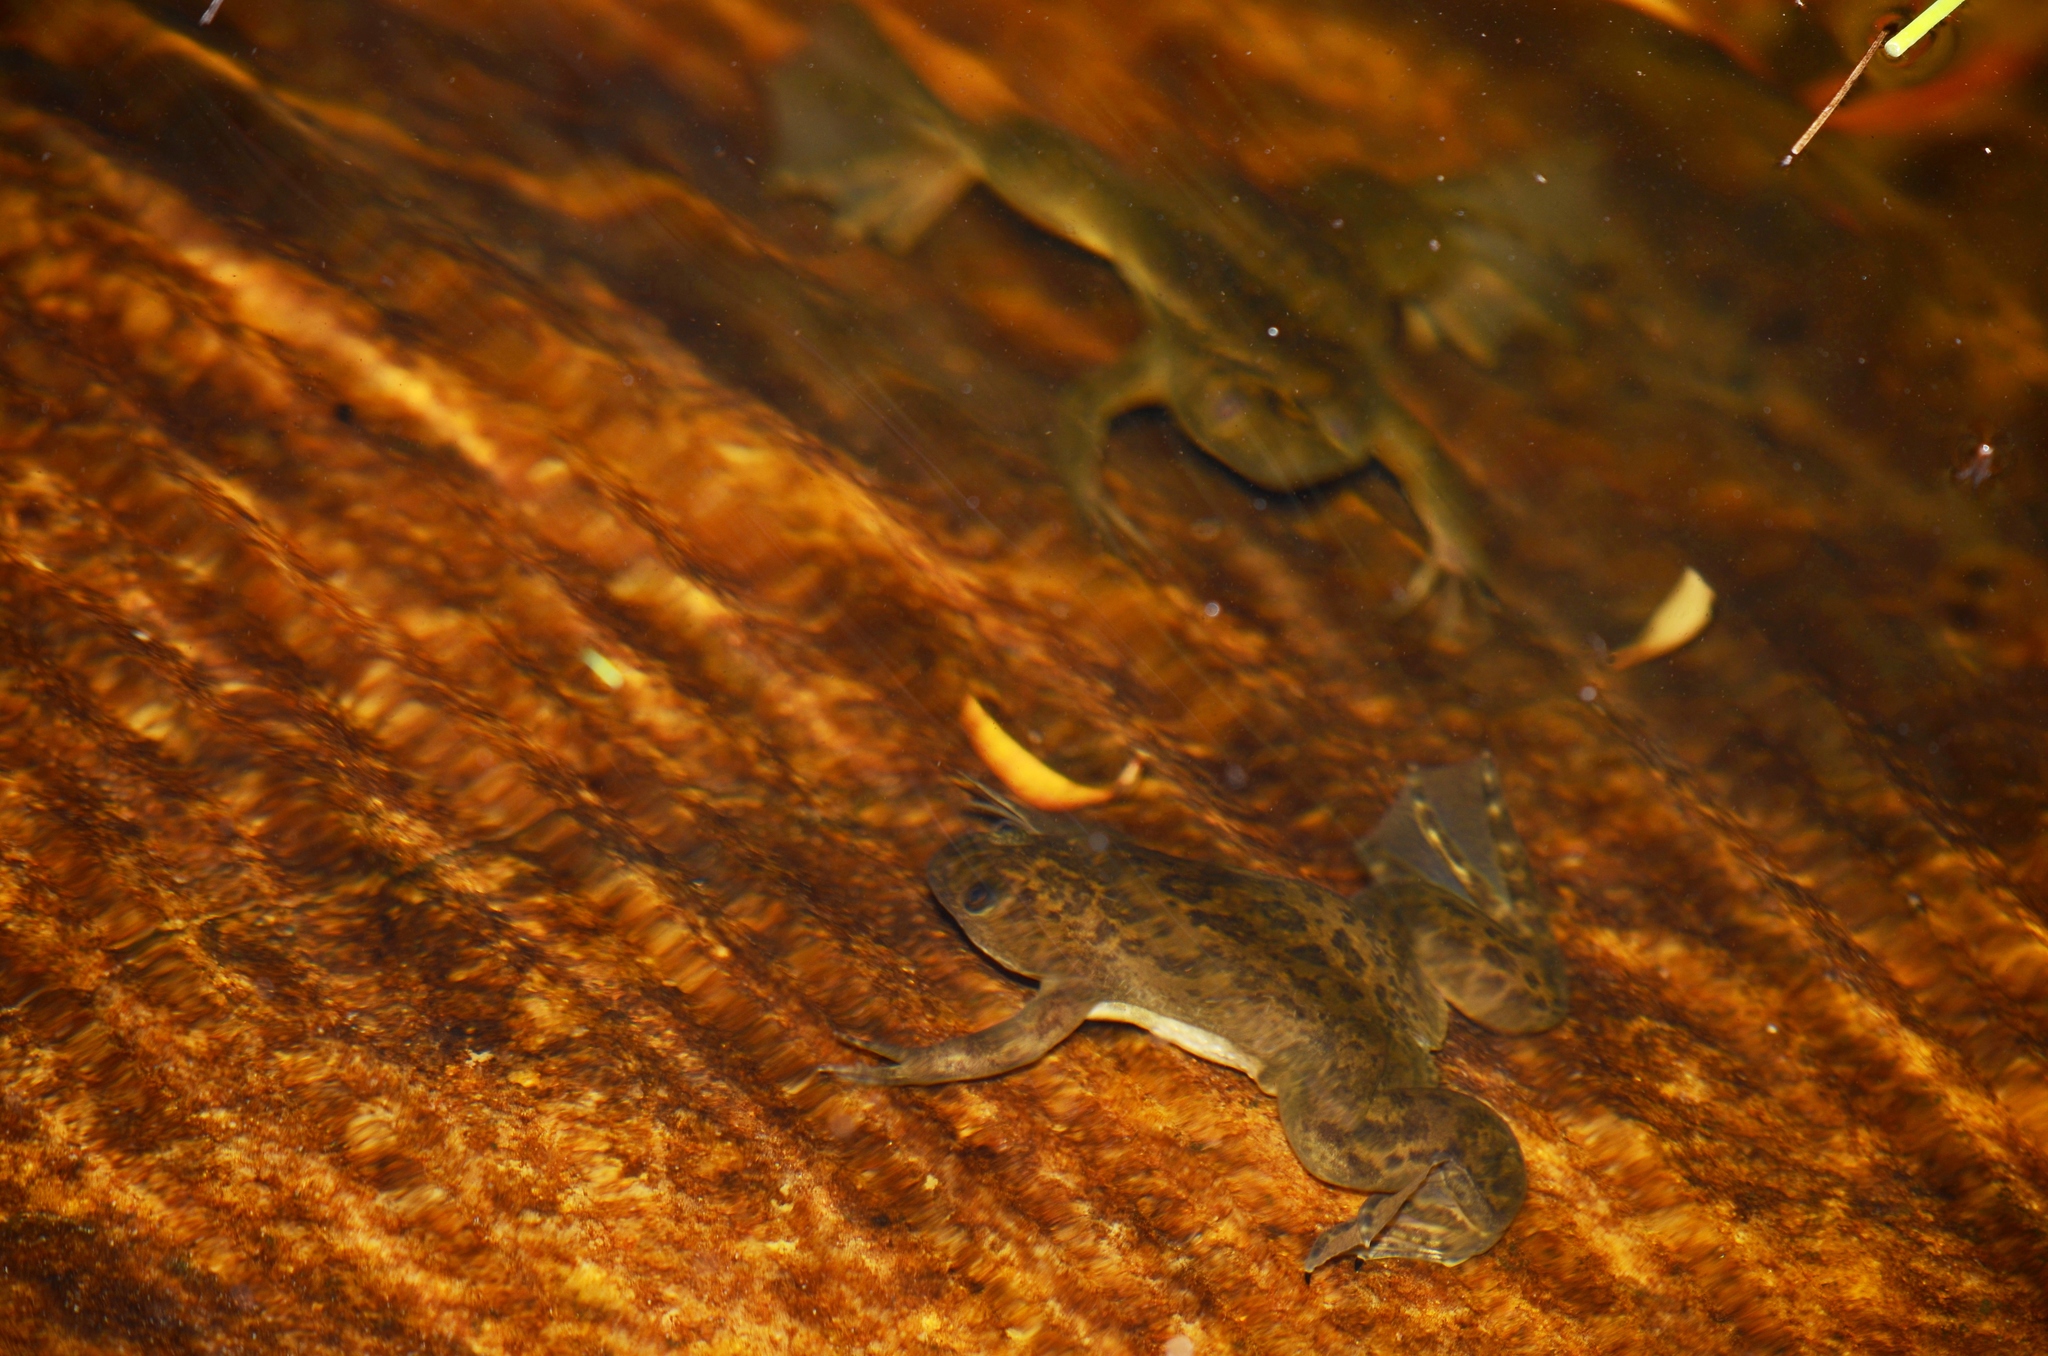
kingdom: Animalia
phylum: Chordata
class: Amphibia
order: Anura
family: Pipidae
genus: Xenopus
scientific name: Xenopus laevis
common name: African clawed frog
